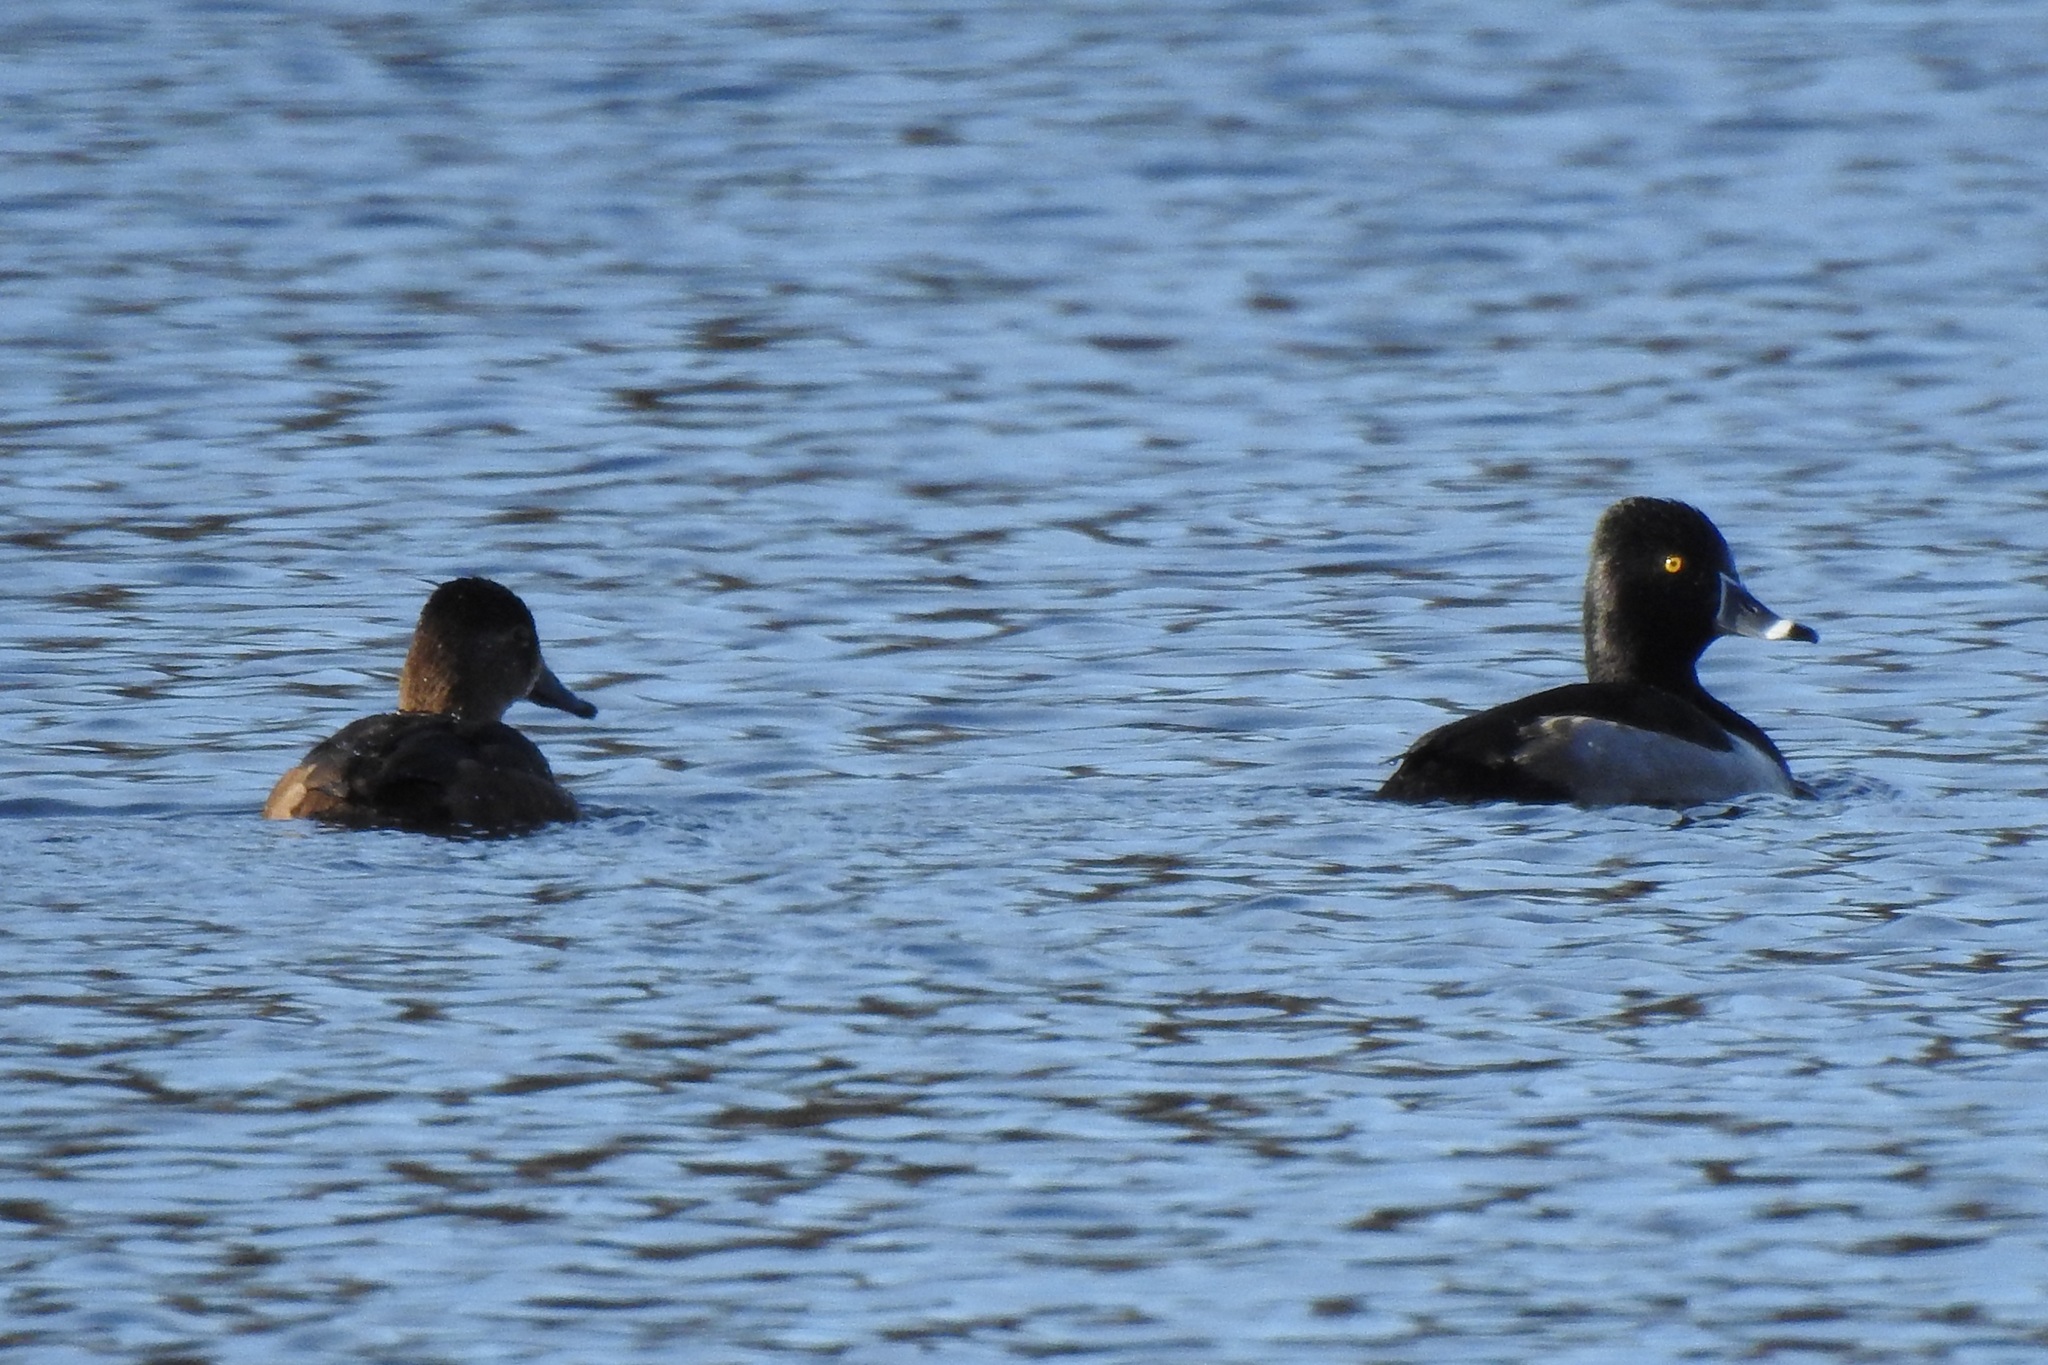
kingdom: Animalia
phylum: Chordata
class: Aves
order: Anseriformes
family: Anatidae
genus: Aythya
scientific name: Aythya collaris
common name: Ring-necked duck
